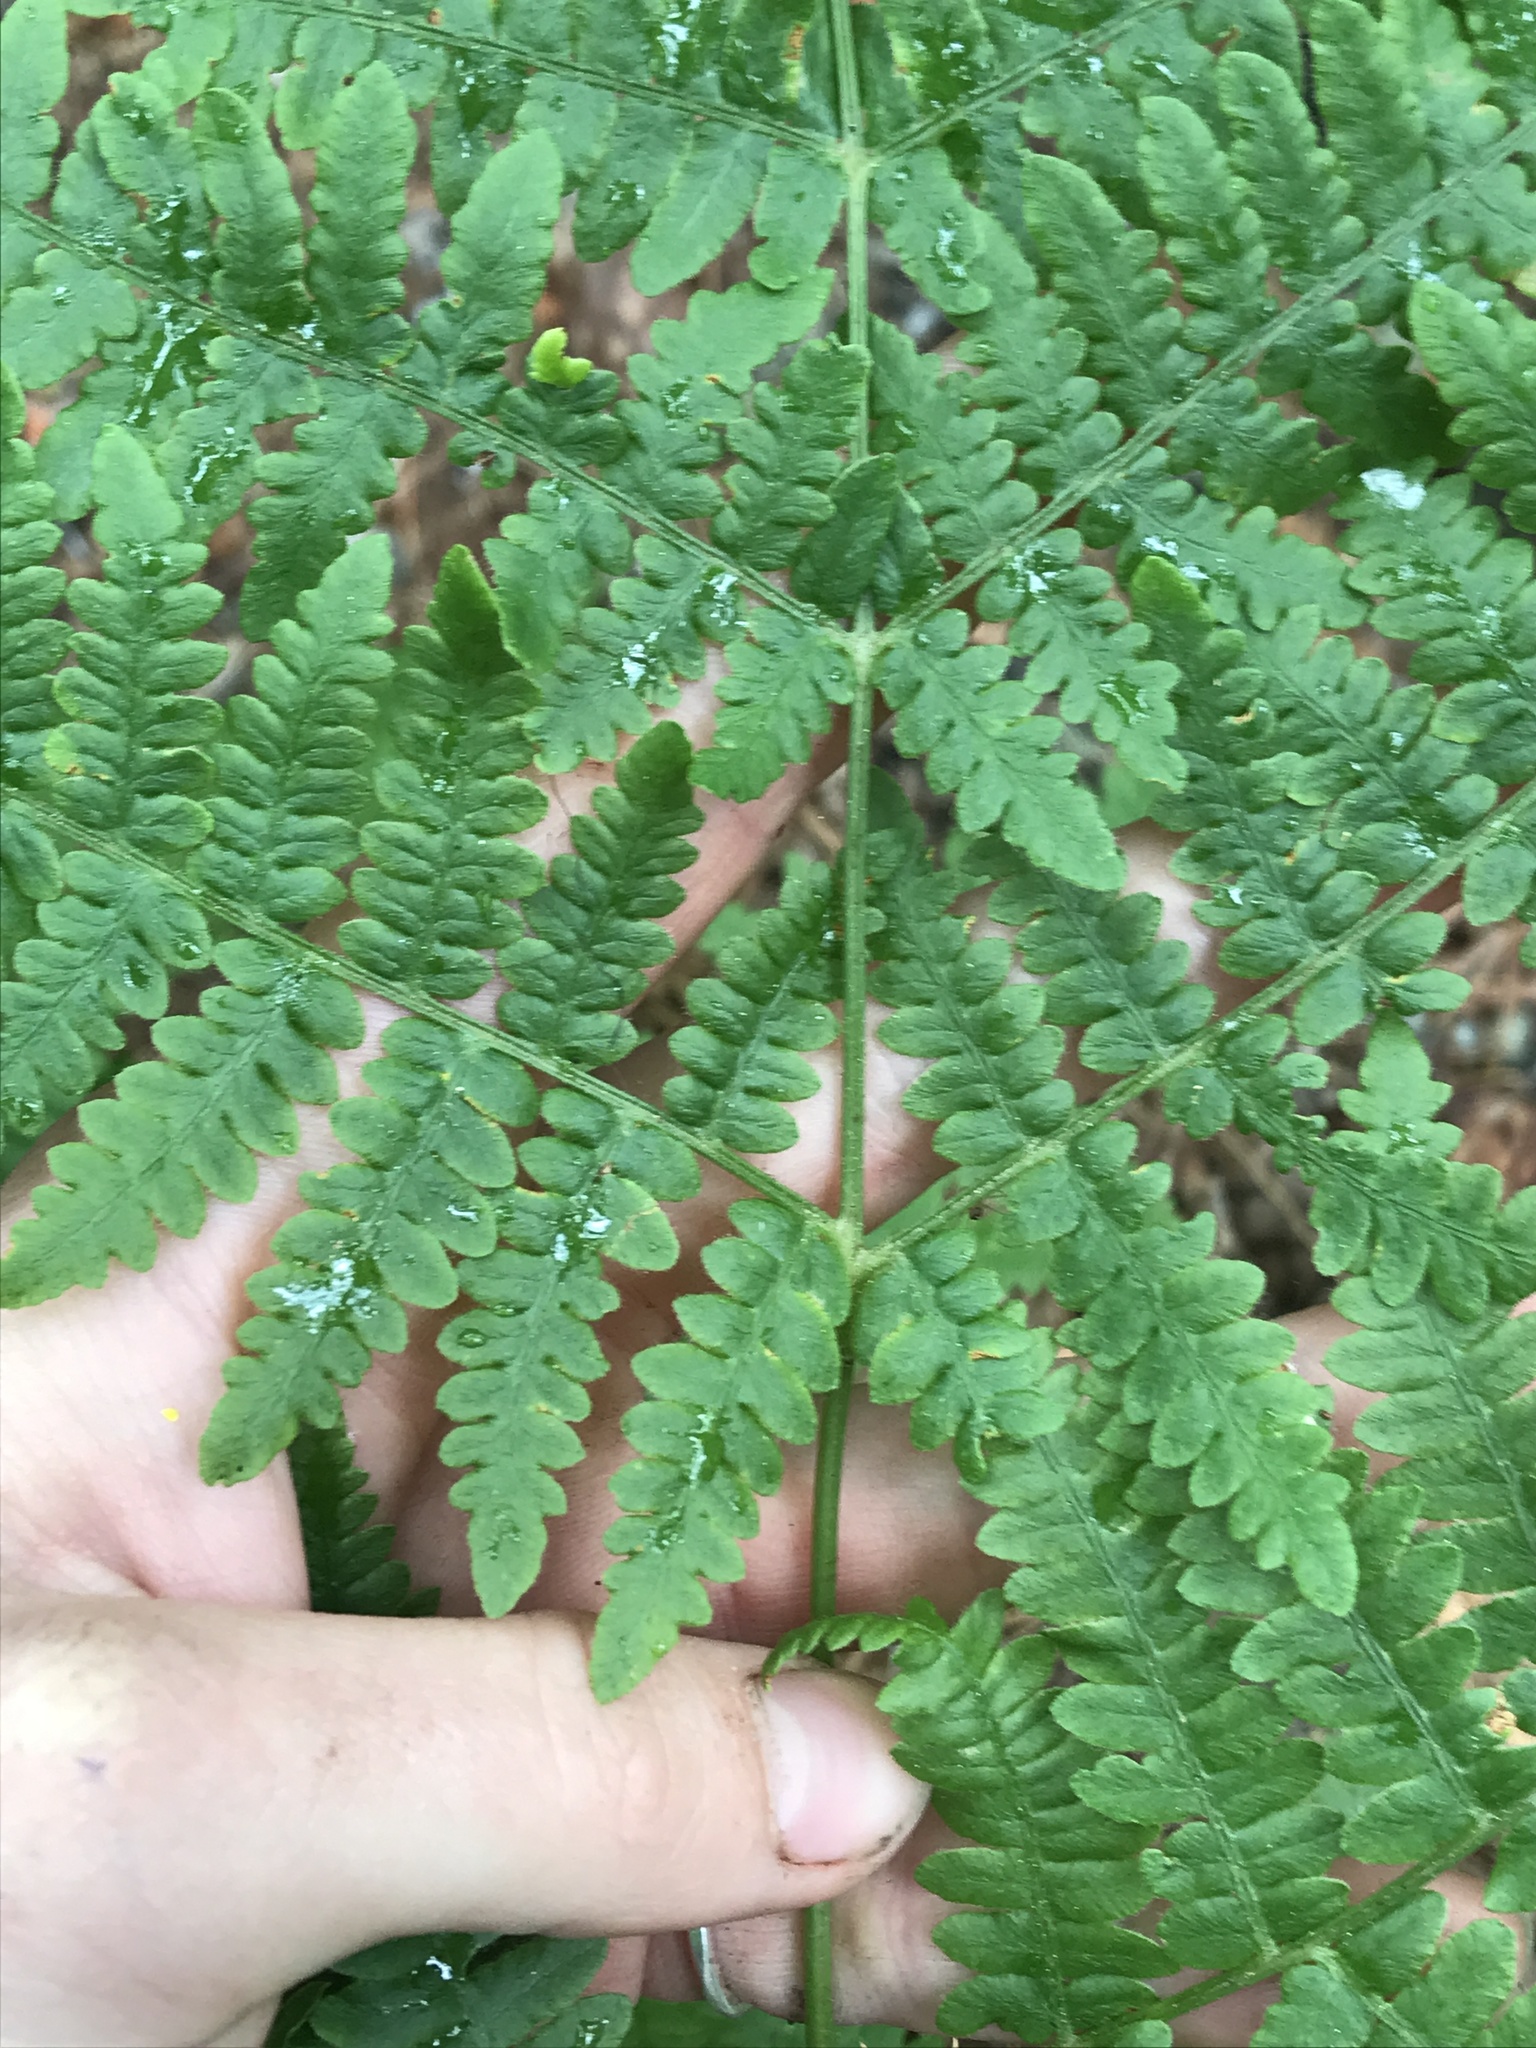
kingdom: Plantae
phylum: Tracheophyta
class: Polypodiopsida
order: Polypodiales
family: Dennstaedtiaceae
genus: Pteridium
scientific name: Pteridium aquilinum
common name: Bracken
